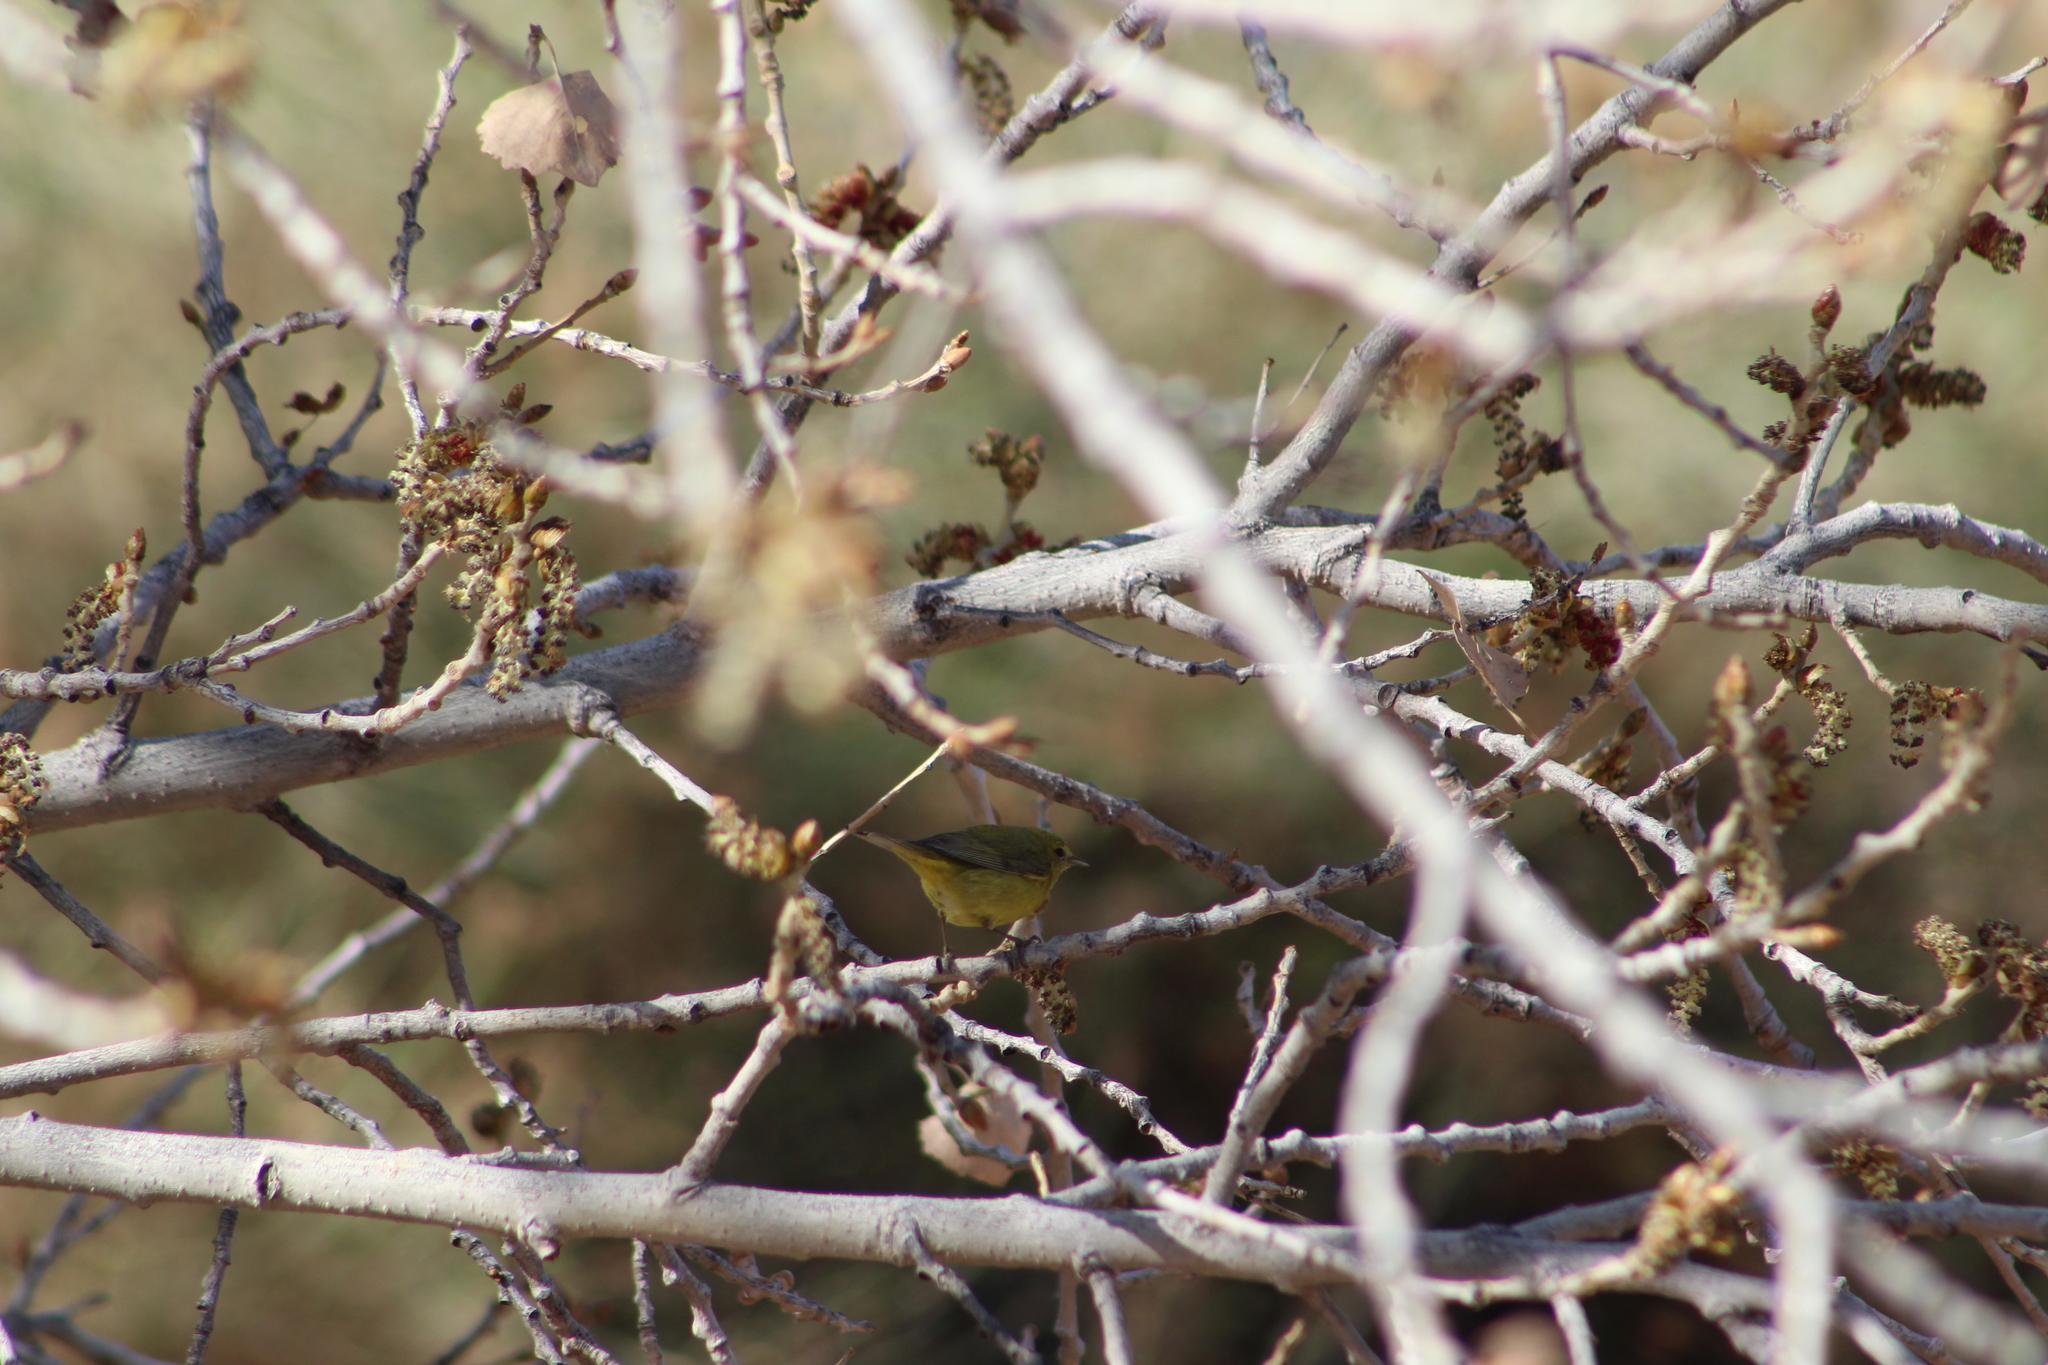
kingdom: Animalia
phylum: Chordata
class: Aves
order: Passeriformes
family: Parulidae
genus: Leiothlypis
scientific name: Leiothlypis celata
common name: Orange-crowned warbler
